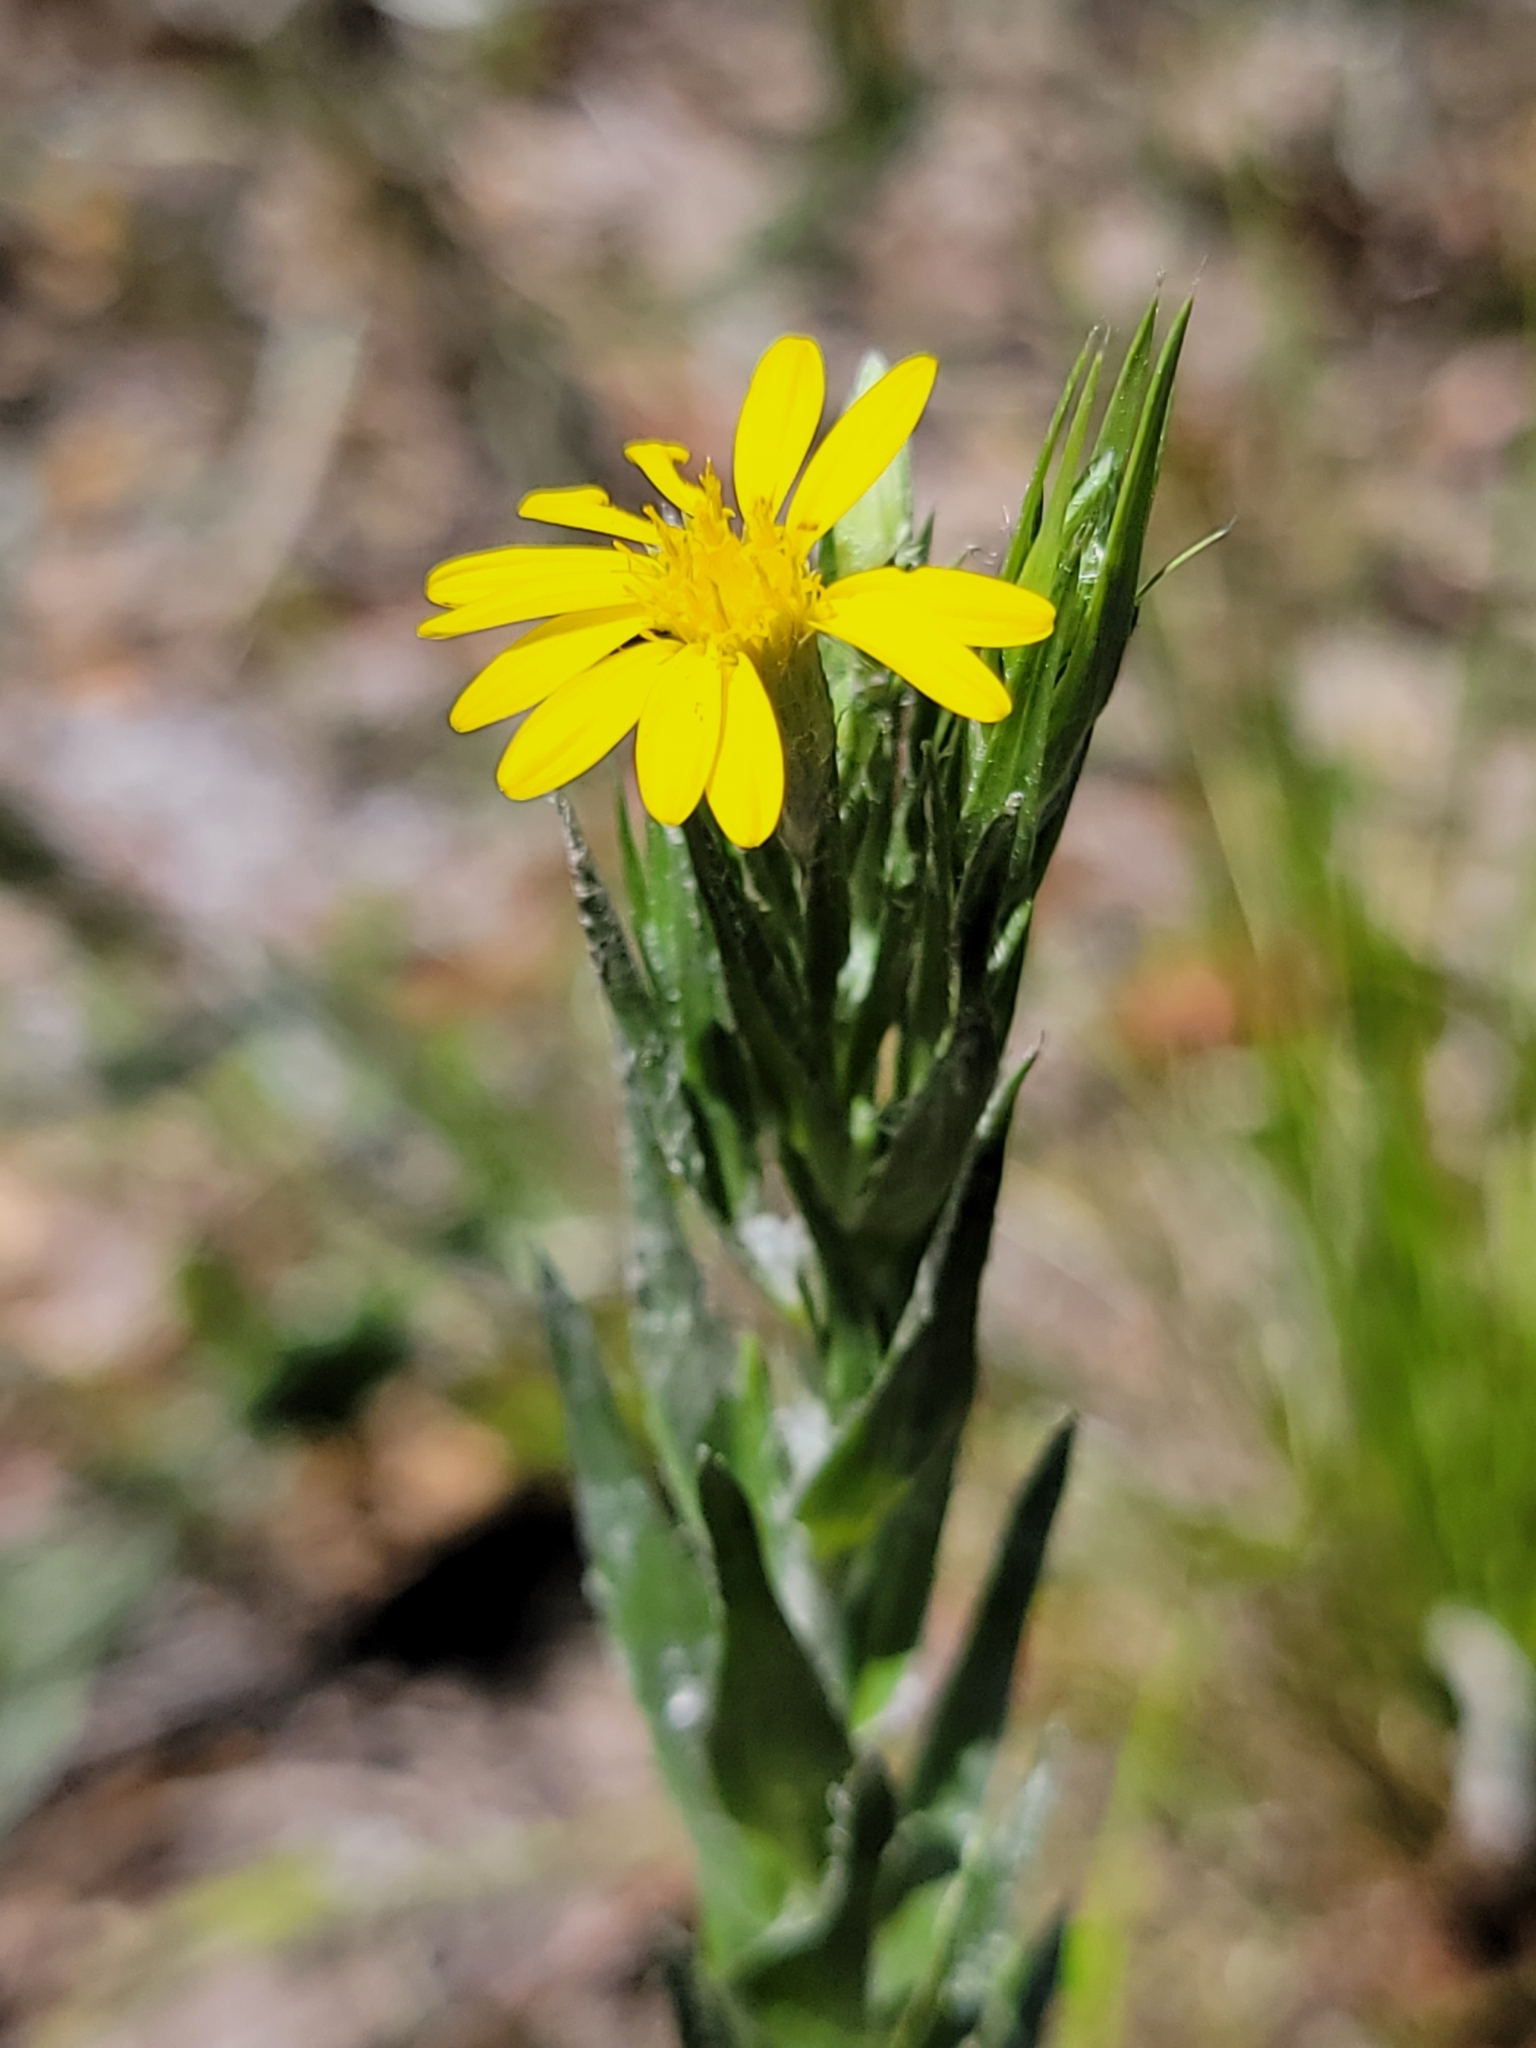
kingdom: Plantae
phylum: Tracheophyta
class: Magnoliopsida
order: Asterales
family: Asteraceae
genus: Pityopsis
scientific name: Pityopsis latifolia
